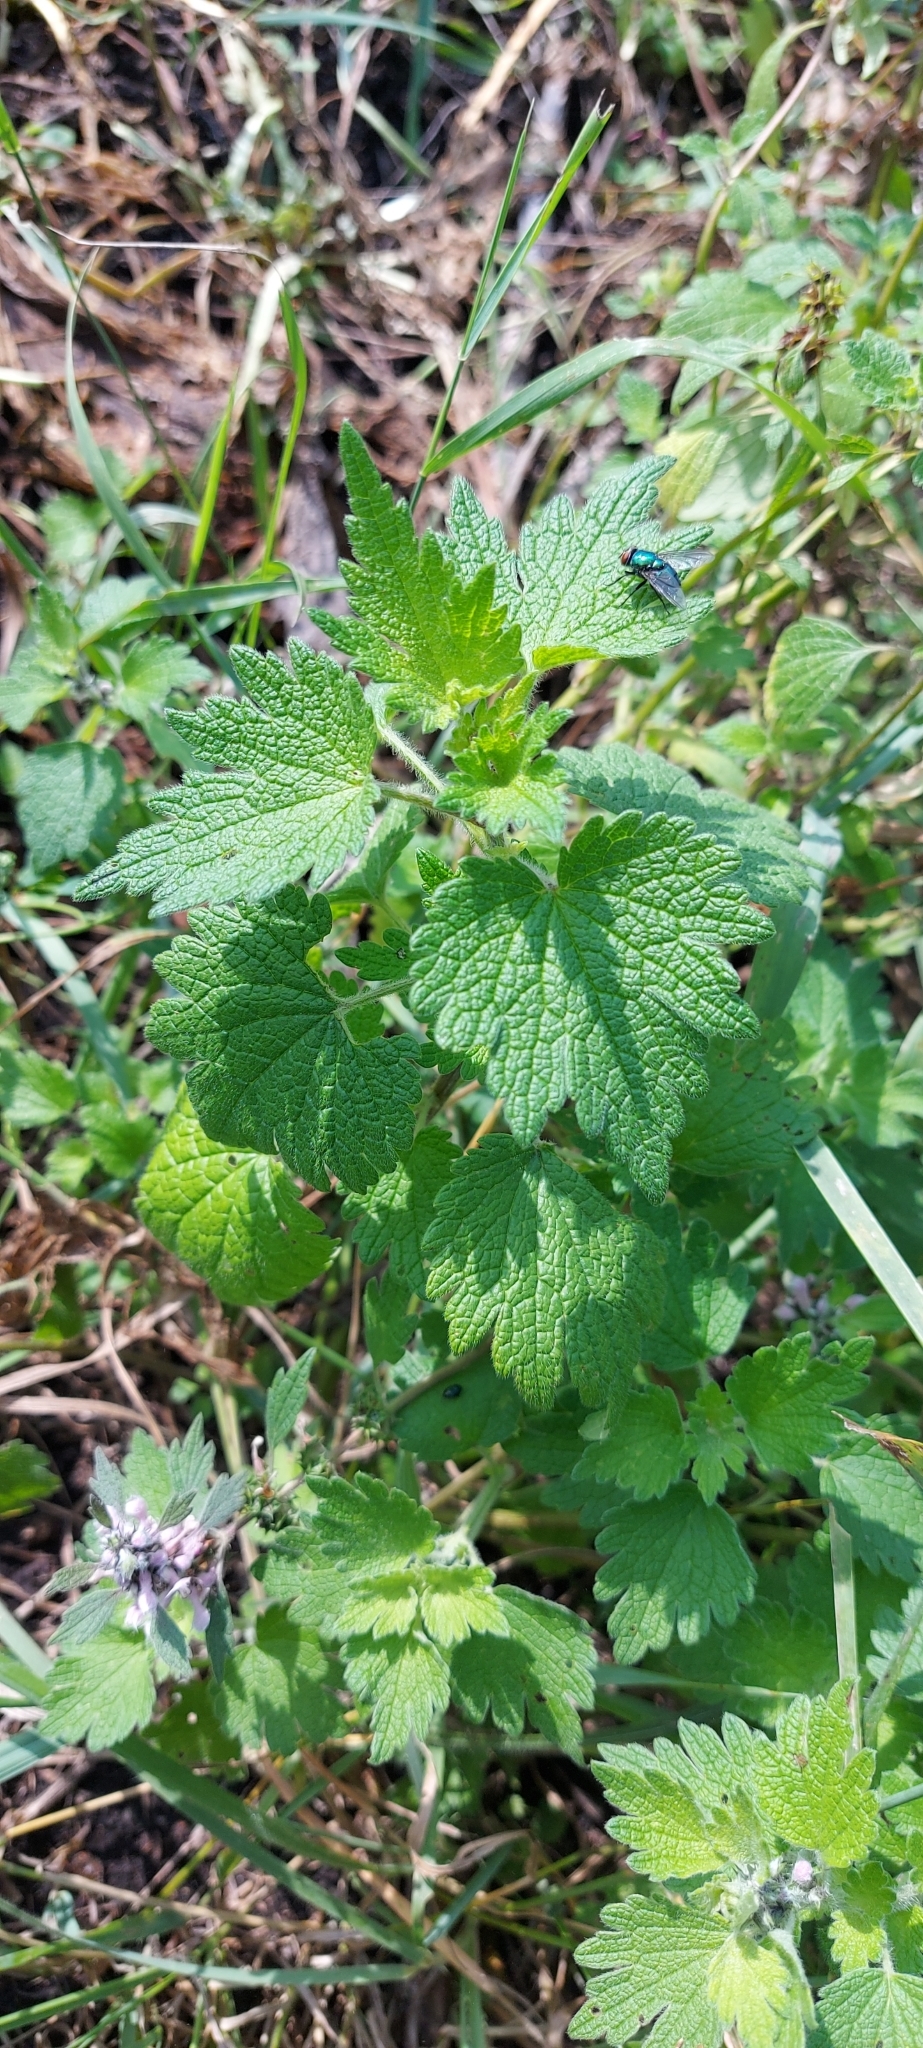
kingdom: Plantae
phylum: Tracheophyta
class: Magnoliopsida
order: Lamiales
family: Lamiaceae
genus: Leonurus
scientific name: Leonurus quinquelobatus
